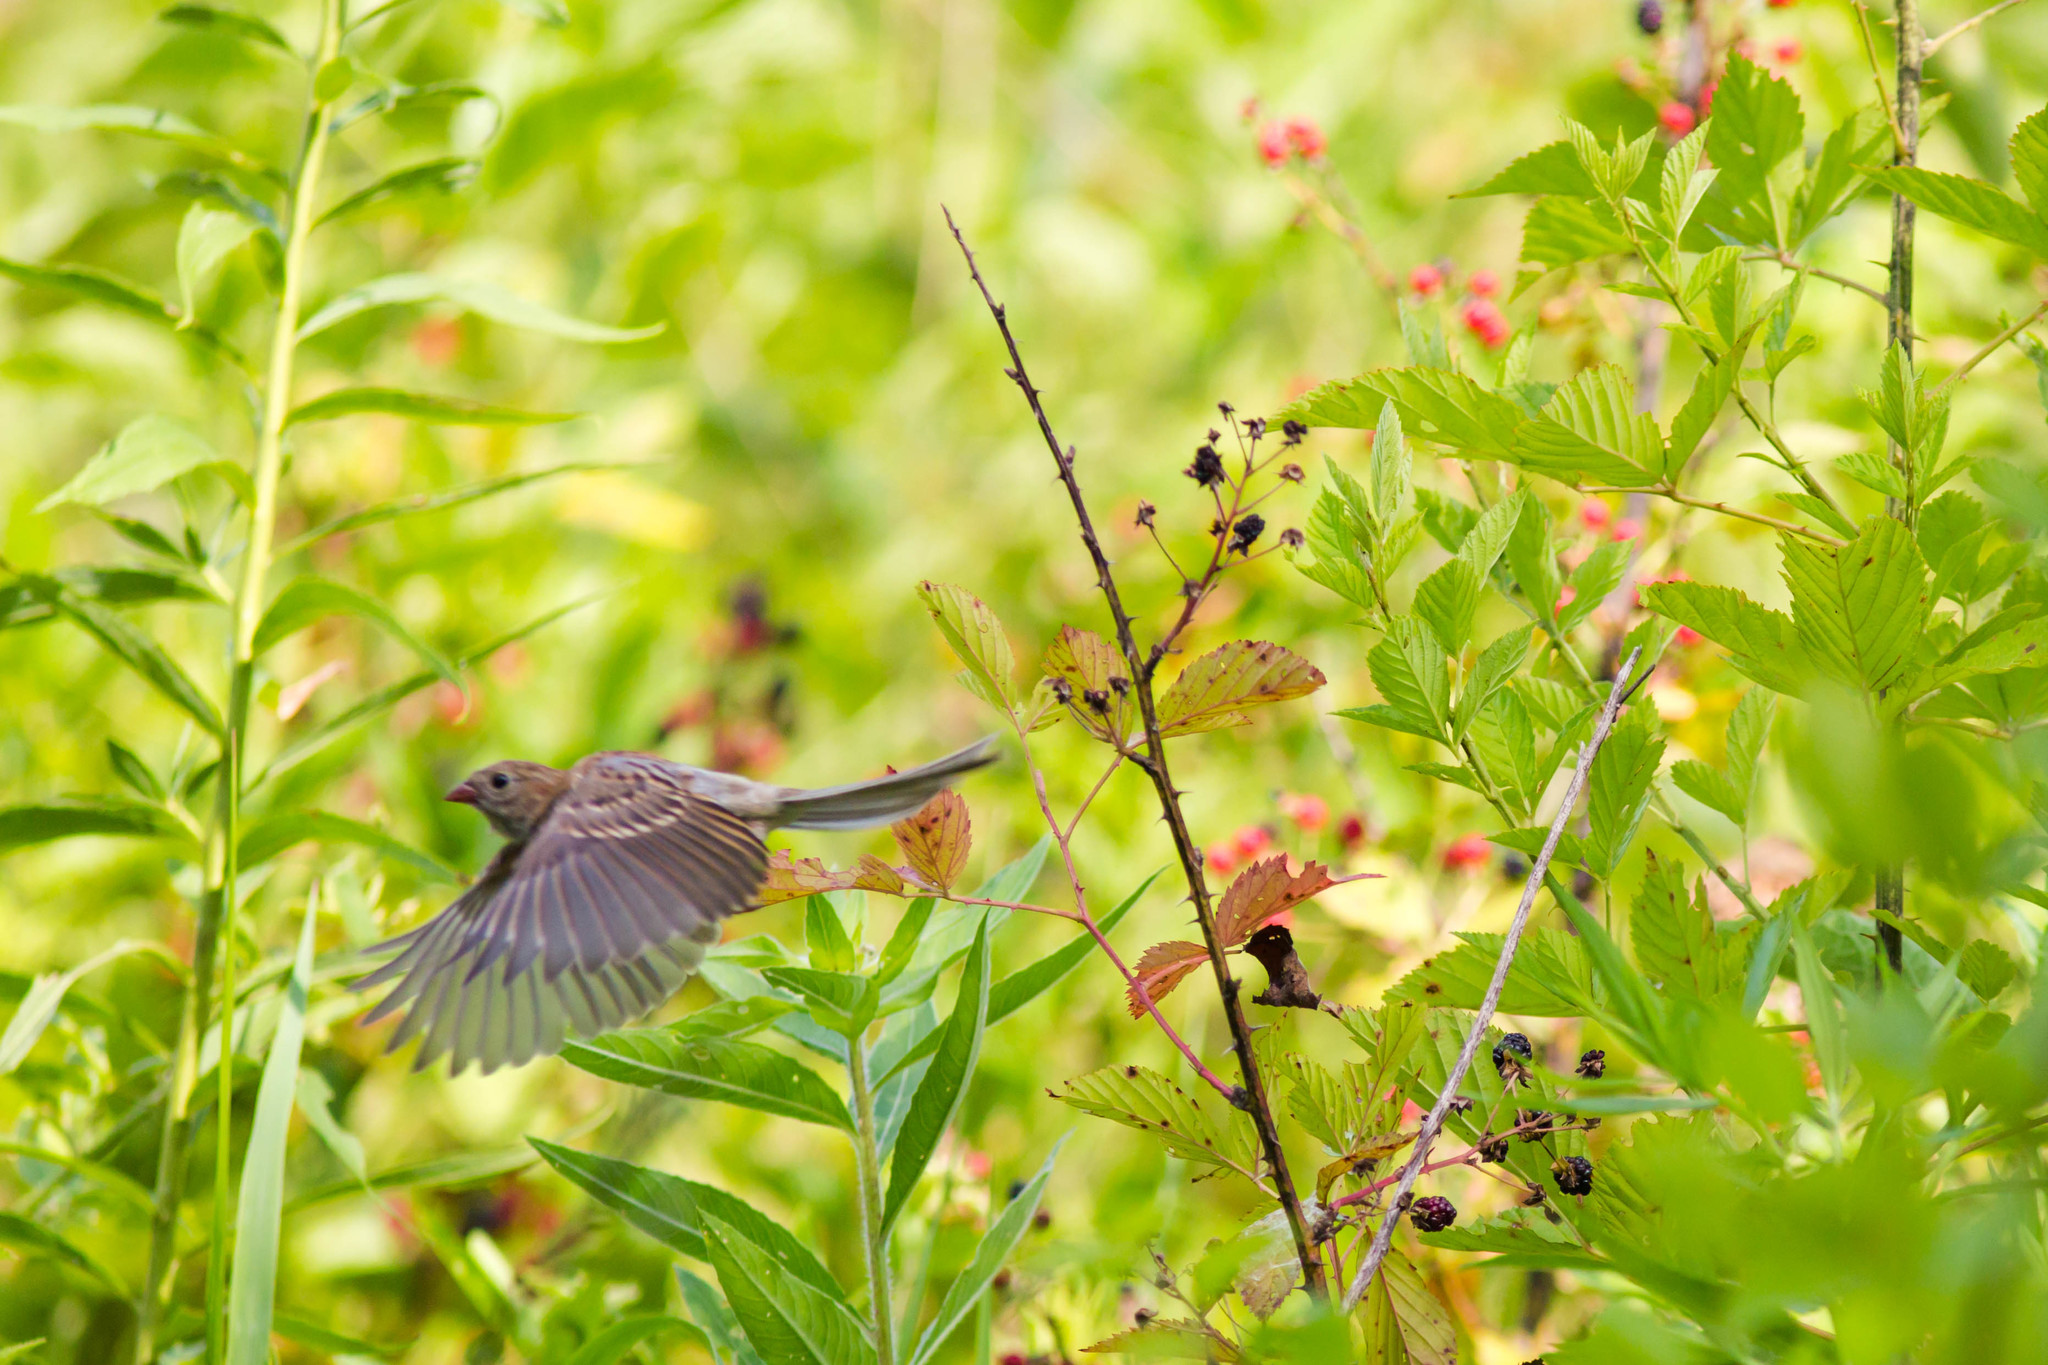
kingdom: Animalia
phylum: Chordata
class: Aves
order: Passeriformes
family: Passerellidae
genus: Spizella
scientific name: Spizella pusilla
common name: Field sparrow
